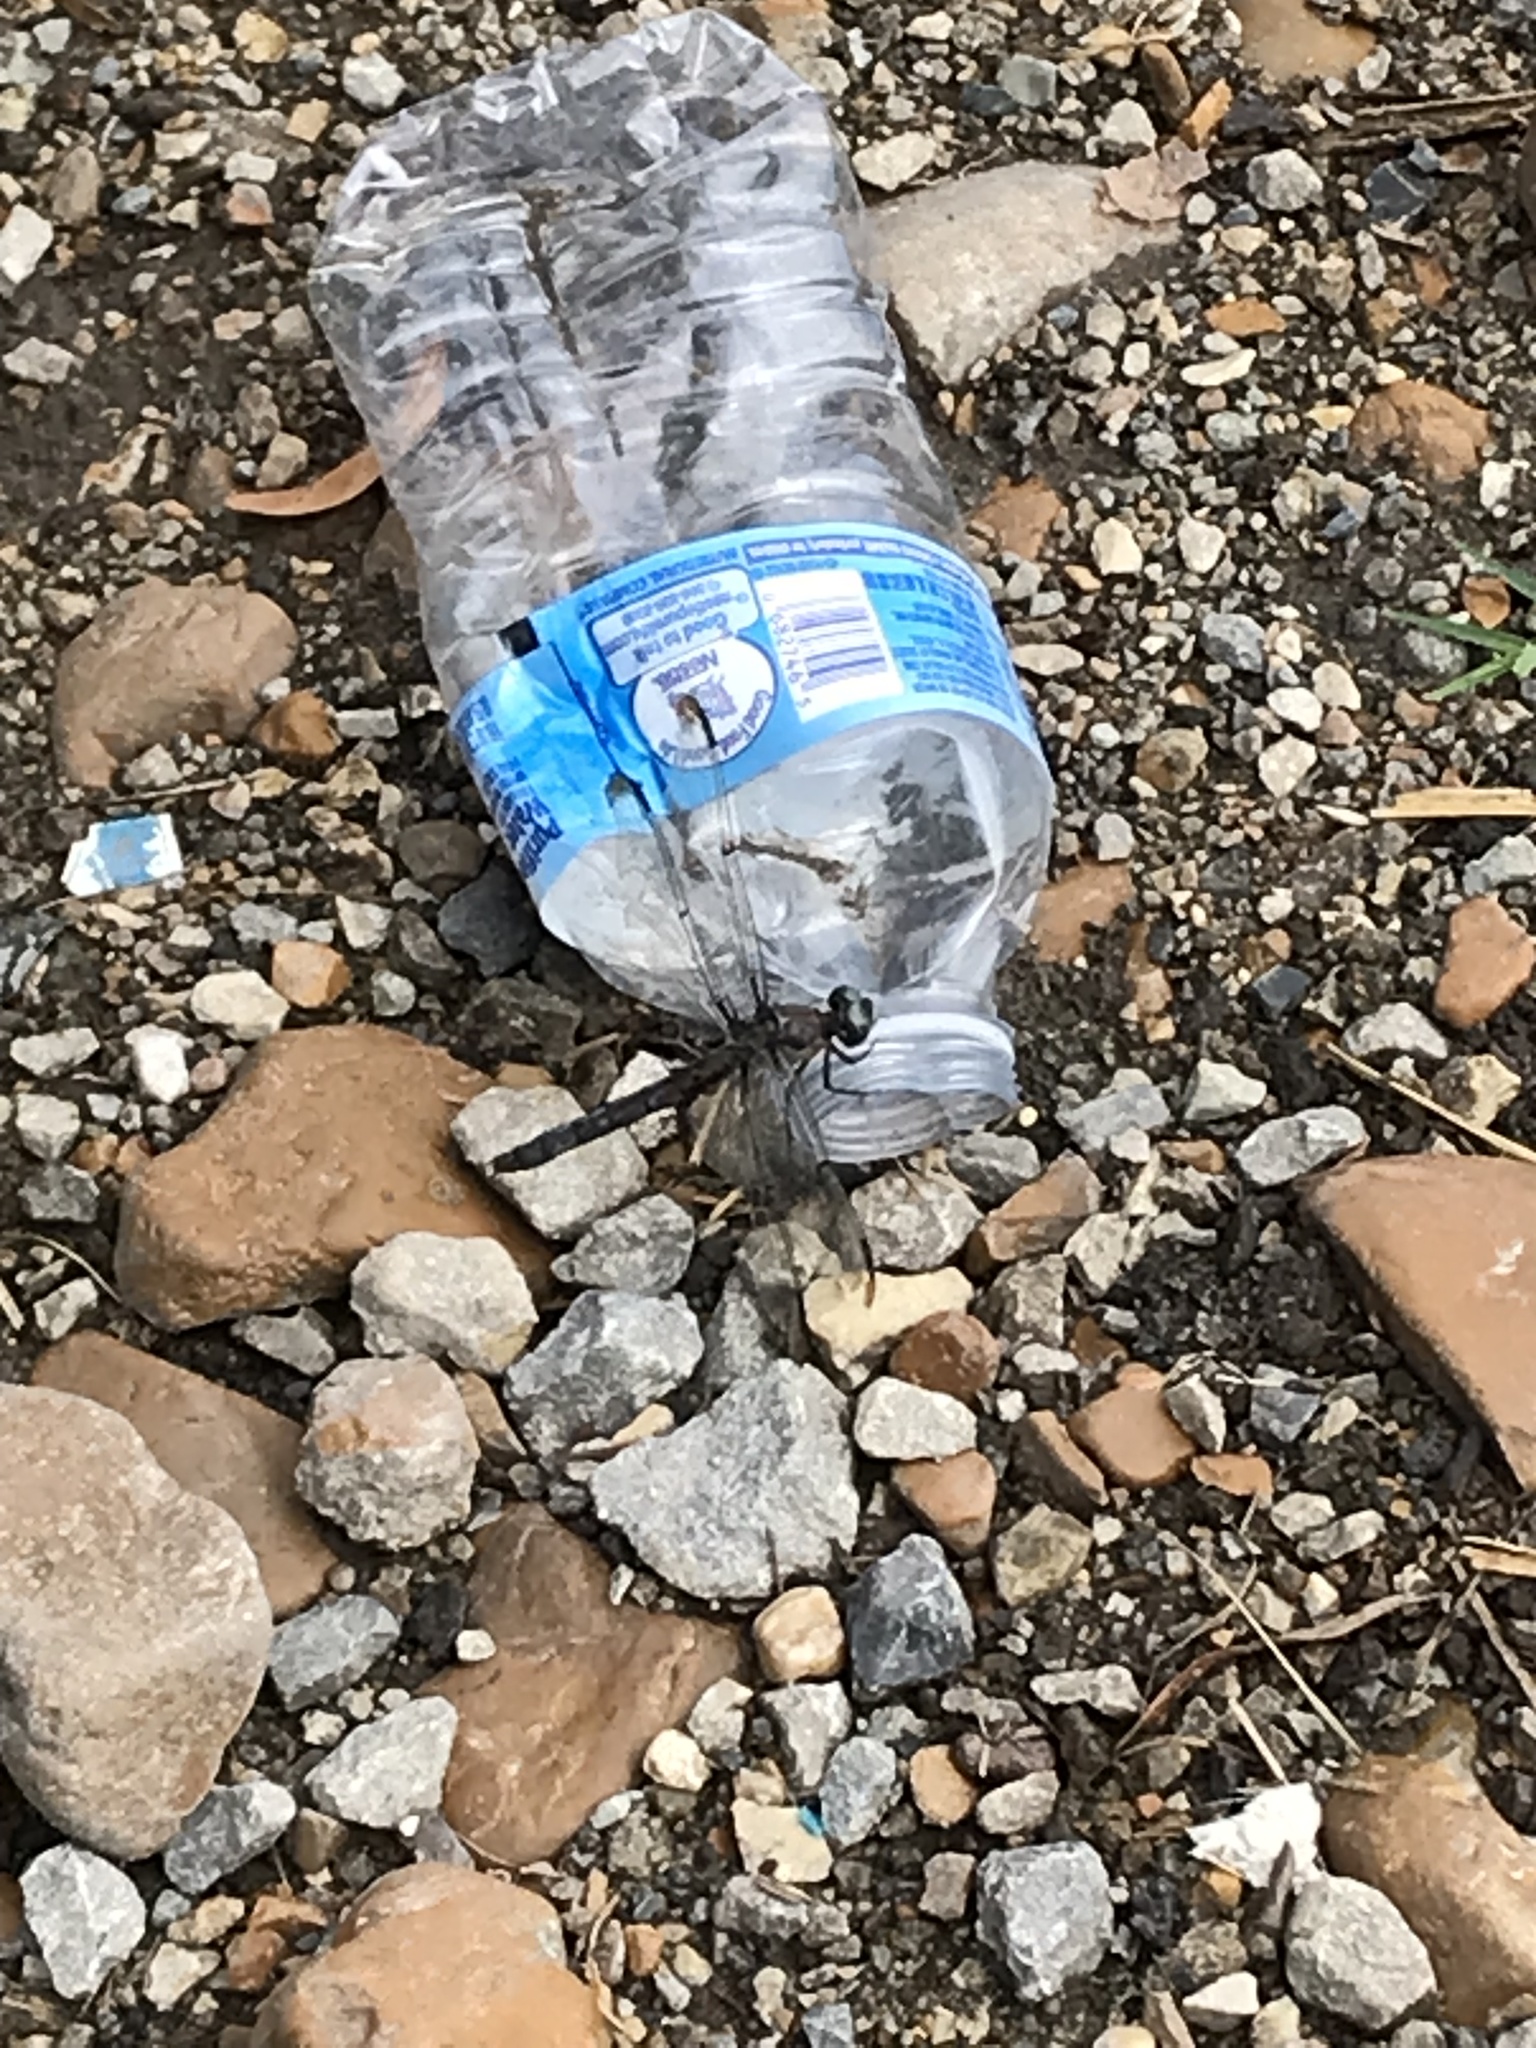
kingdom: Animalia
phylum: Arthropoda
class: Insecta
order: Odonata
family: Libellulidae
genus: Libellula
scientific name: Libellula vibrans
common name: Great blue skimmer
